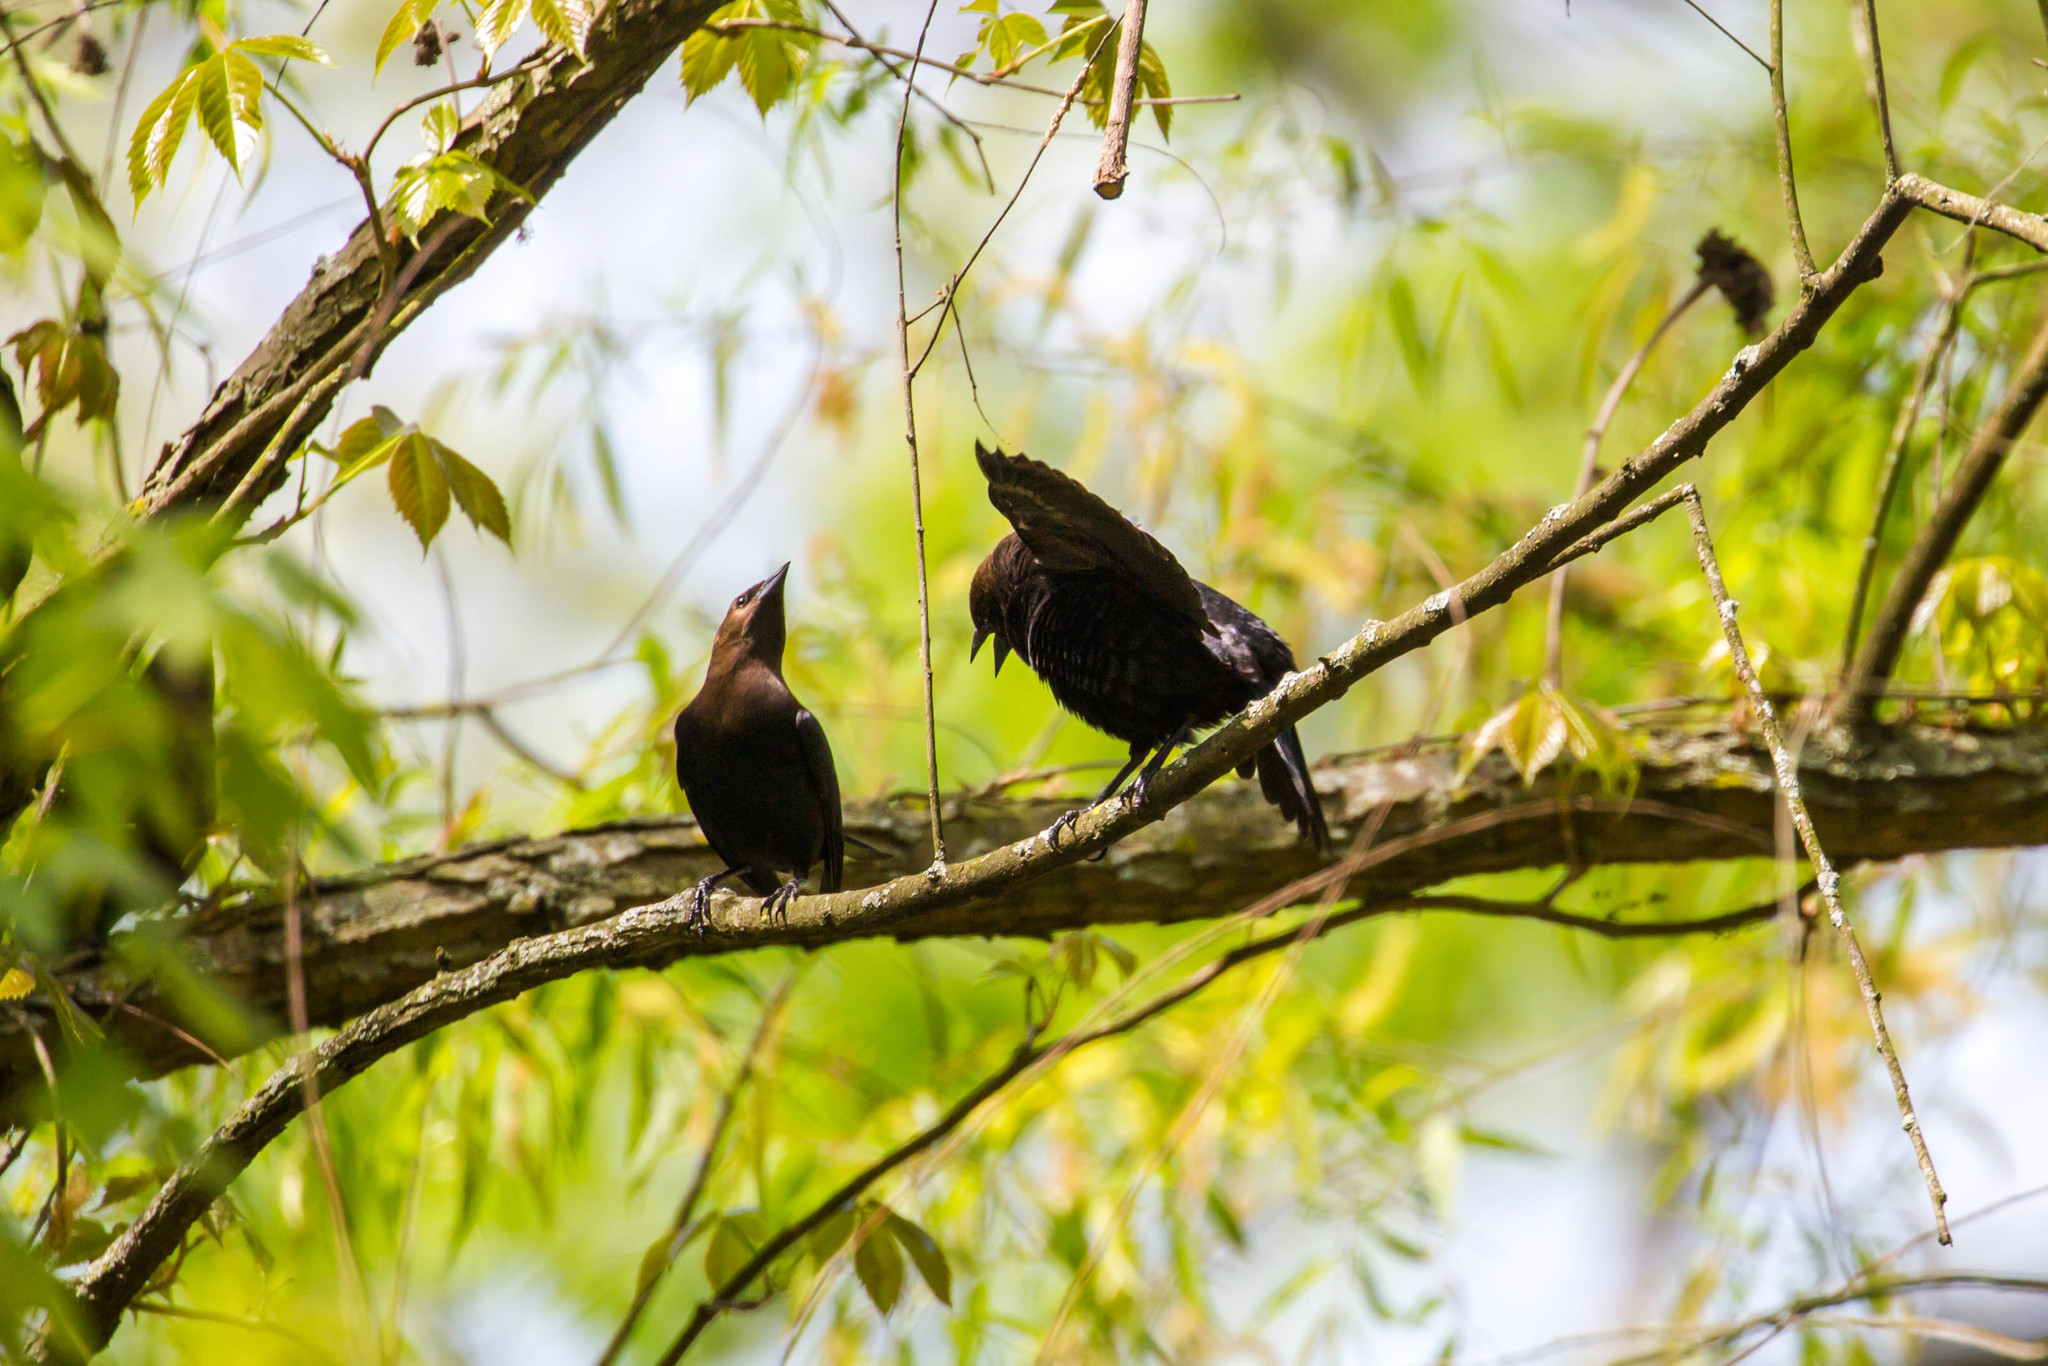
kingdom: Animalia
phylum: Chordata
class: Aves
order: Passeriformes
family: Icteridae
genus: Molothrus
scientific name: Molothrus ater
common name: Brown-headed cowbird
